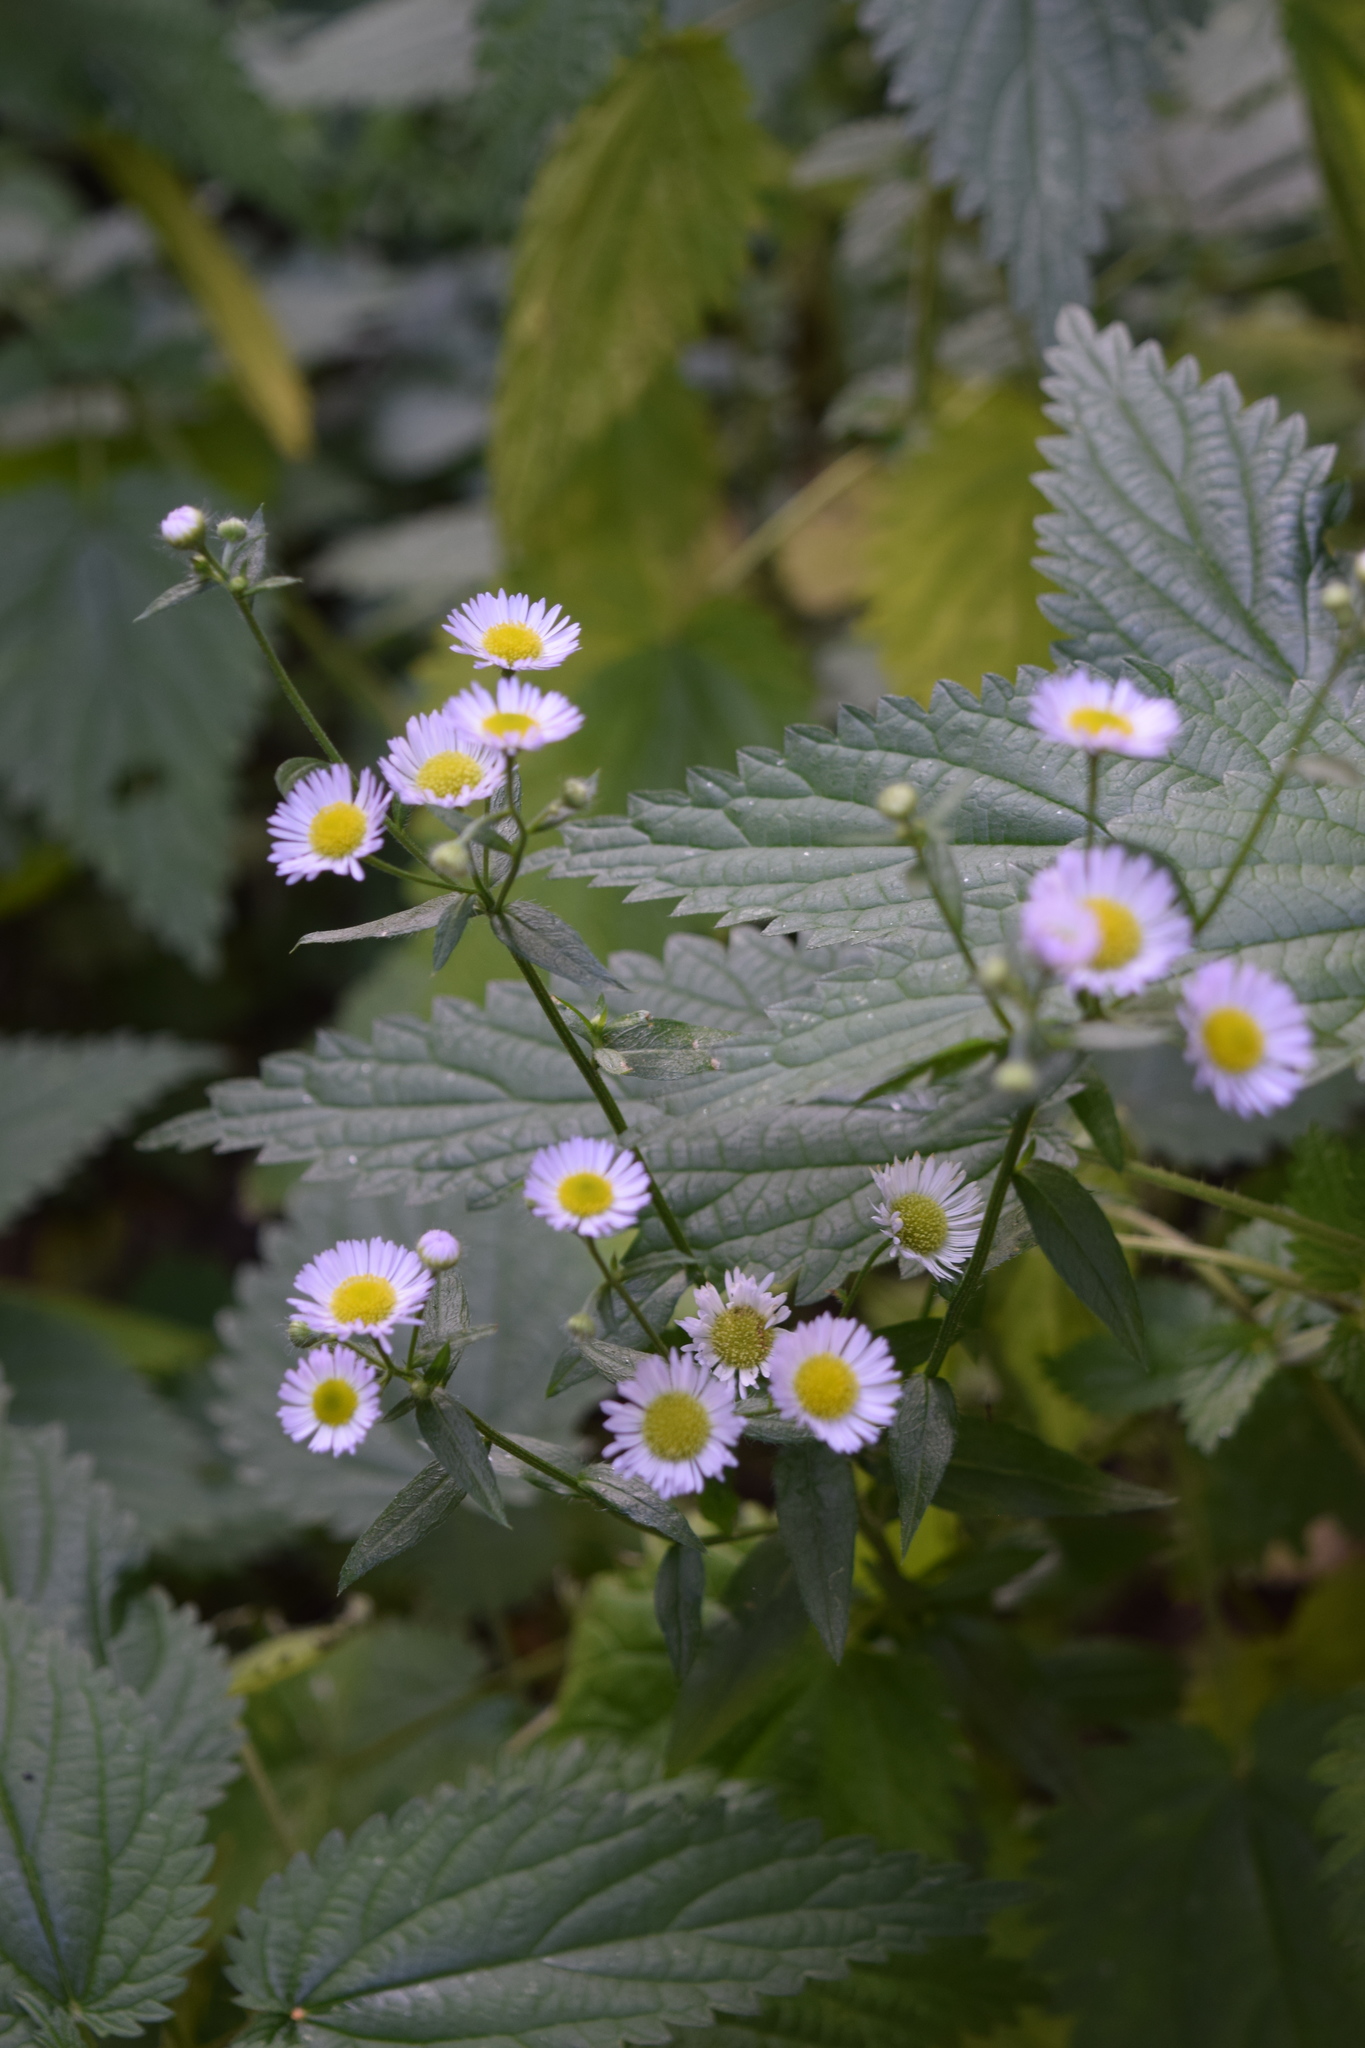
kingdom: Plantae
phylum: Tracheophyta
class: Magnoliopsida
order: Asterales
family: Asteraceae
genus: Erigeron
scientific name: Erigeron annuus
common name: Tall fleabane
